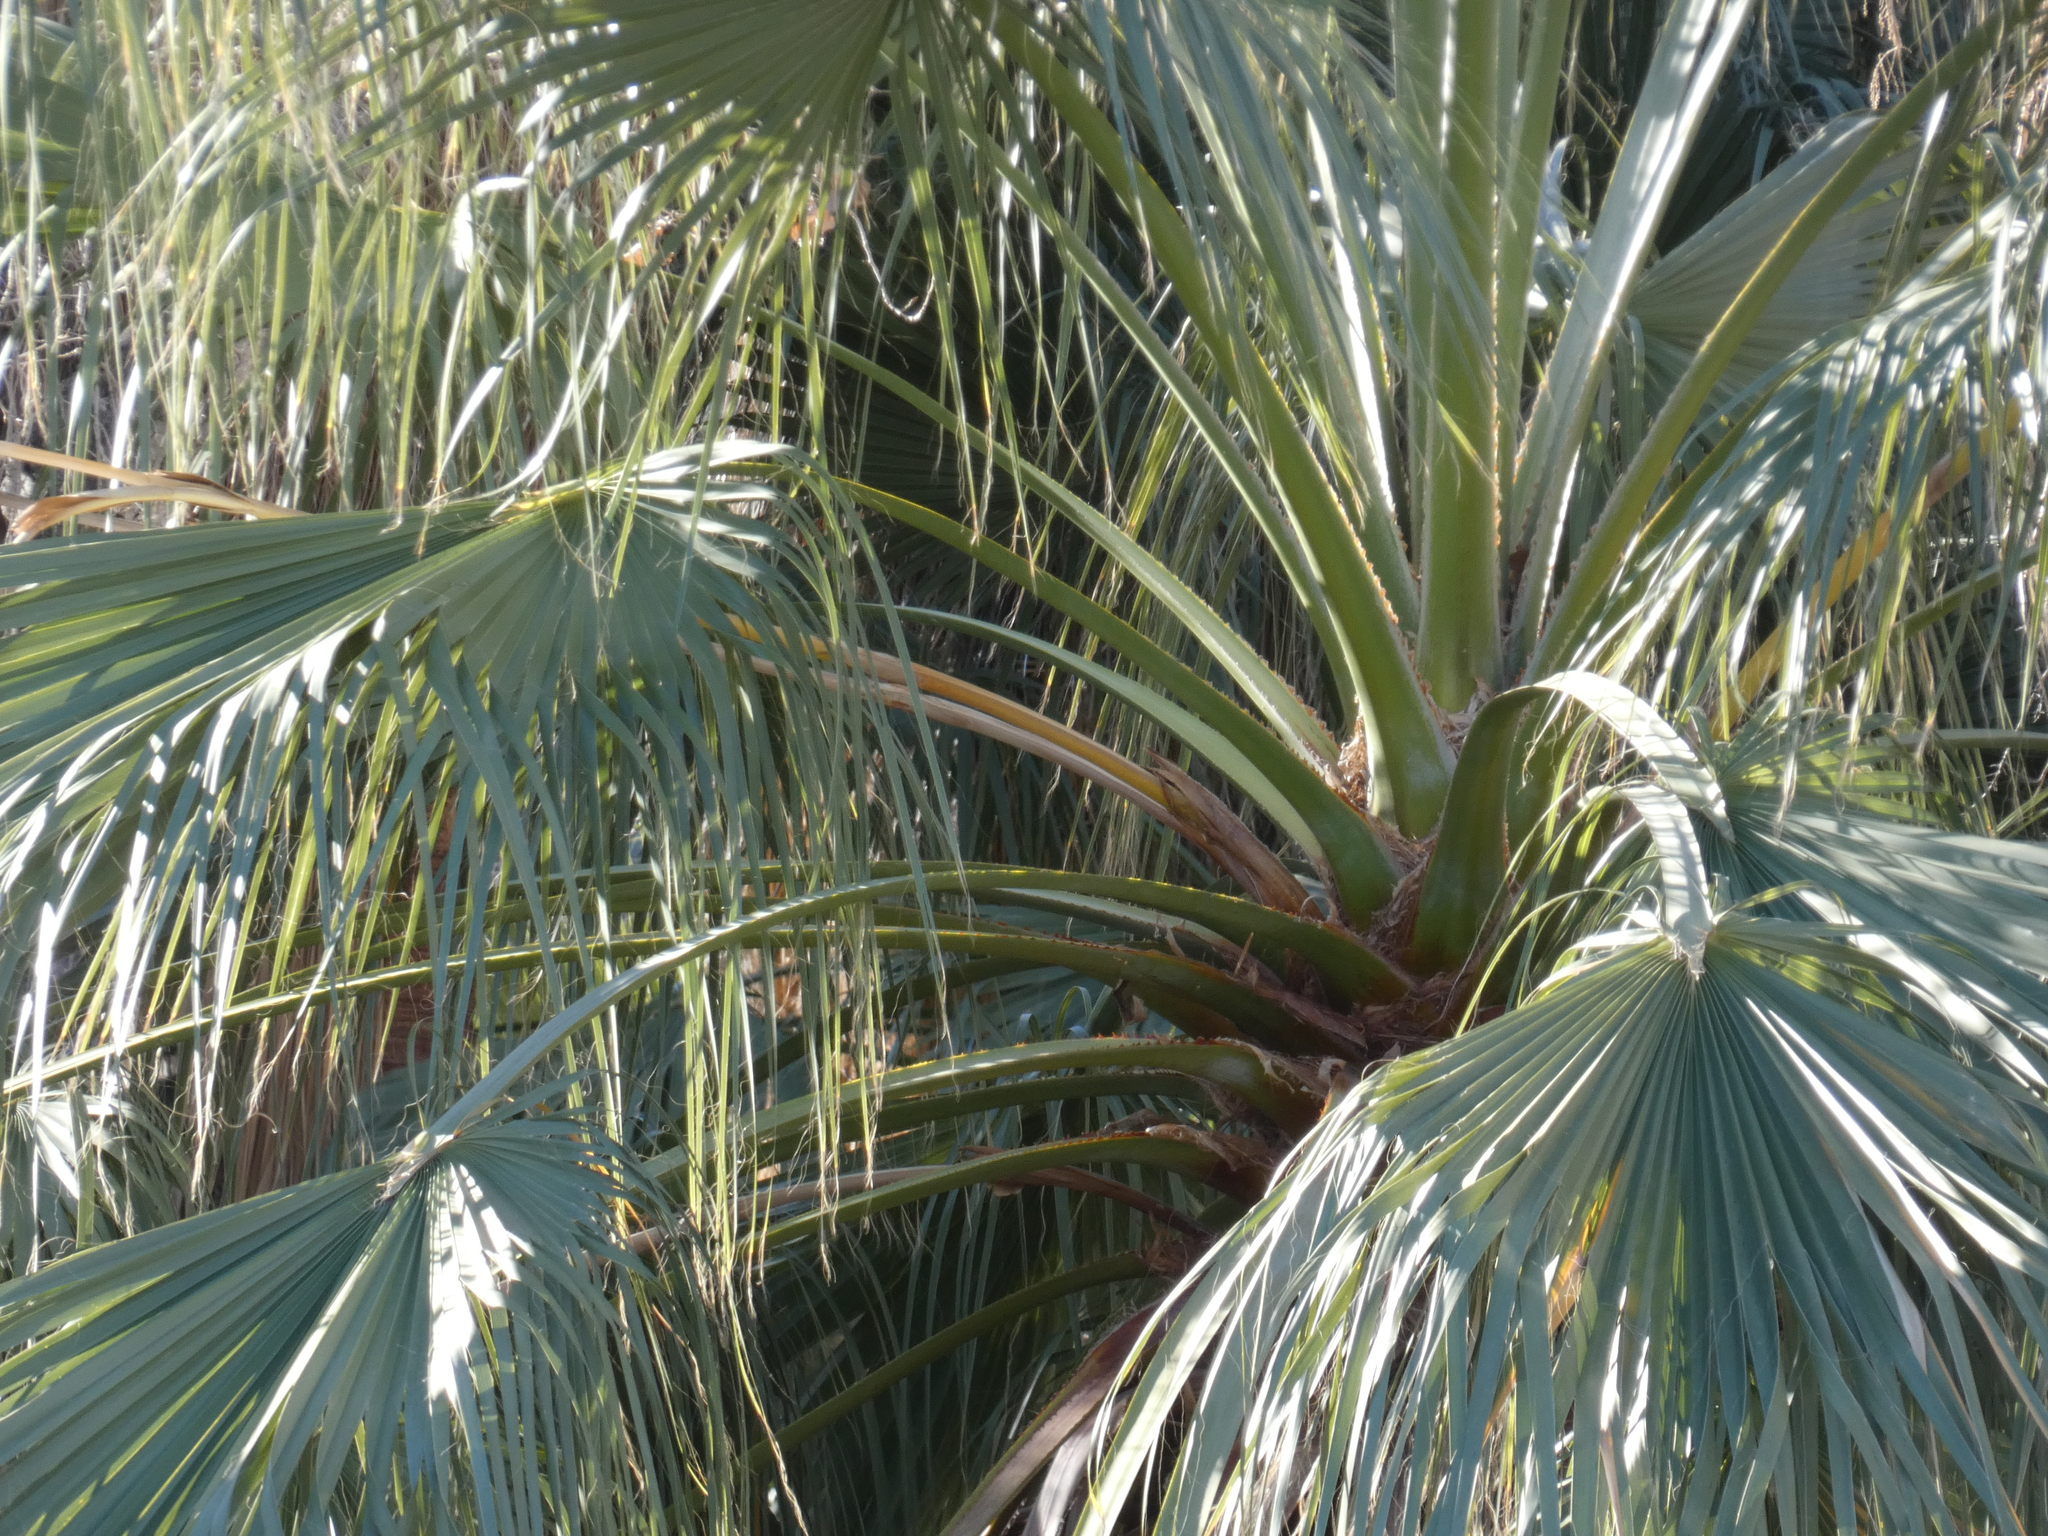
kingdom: Plantae
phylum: Tracheophyta
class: Liliopsida
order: Arecales
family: Arecaceae
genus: Washingtonia
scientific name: Washingtonia filifera
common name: California fan palm
